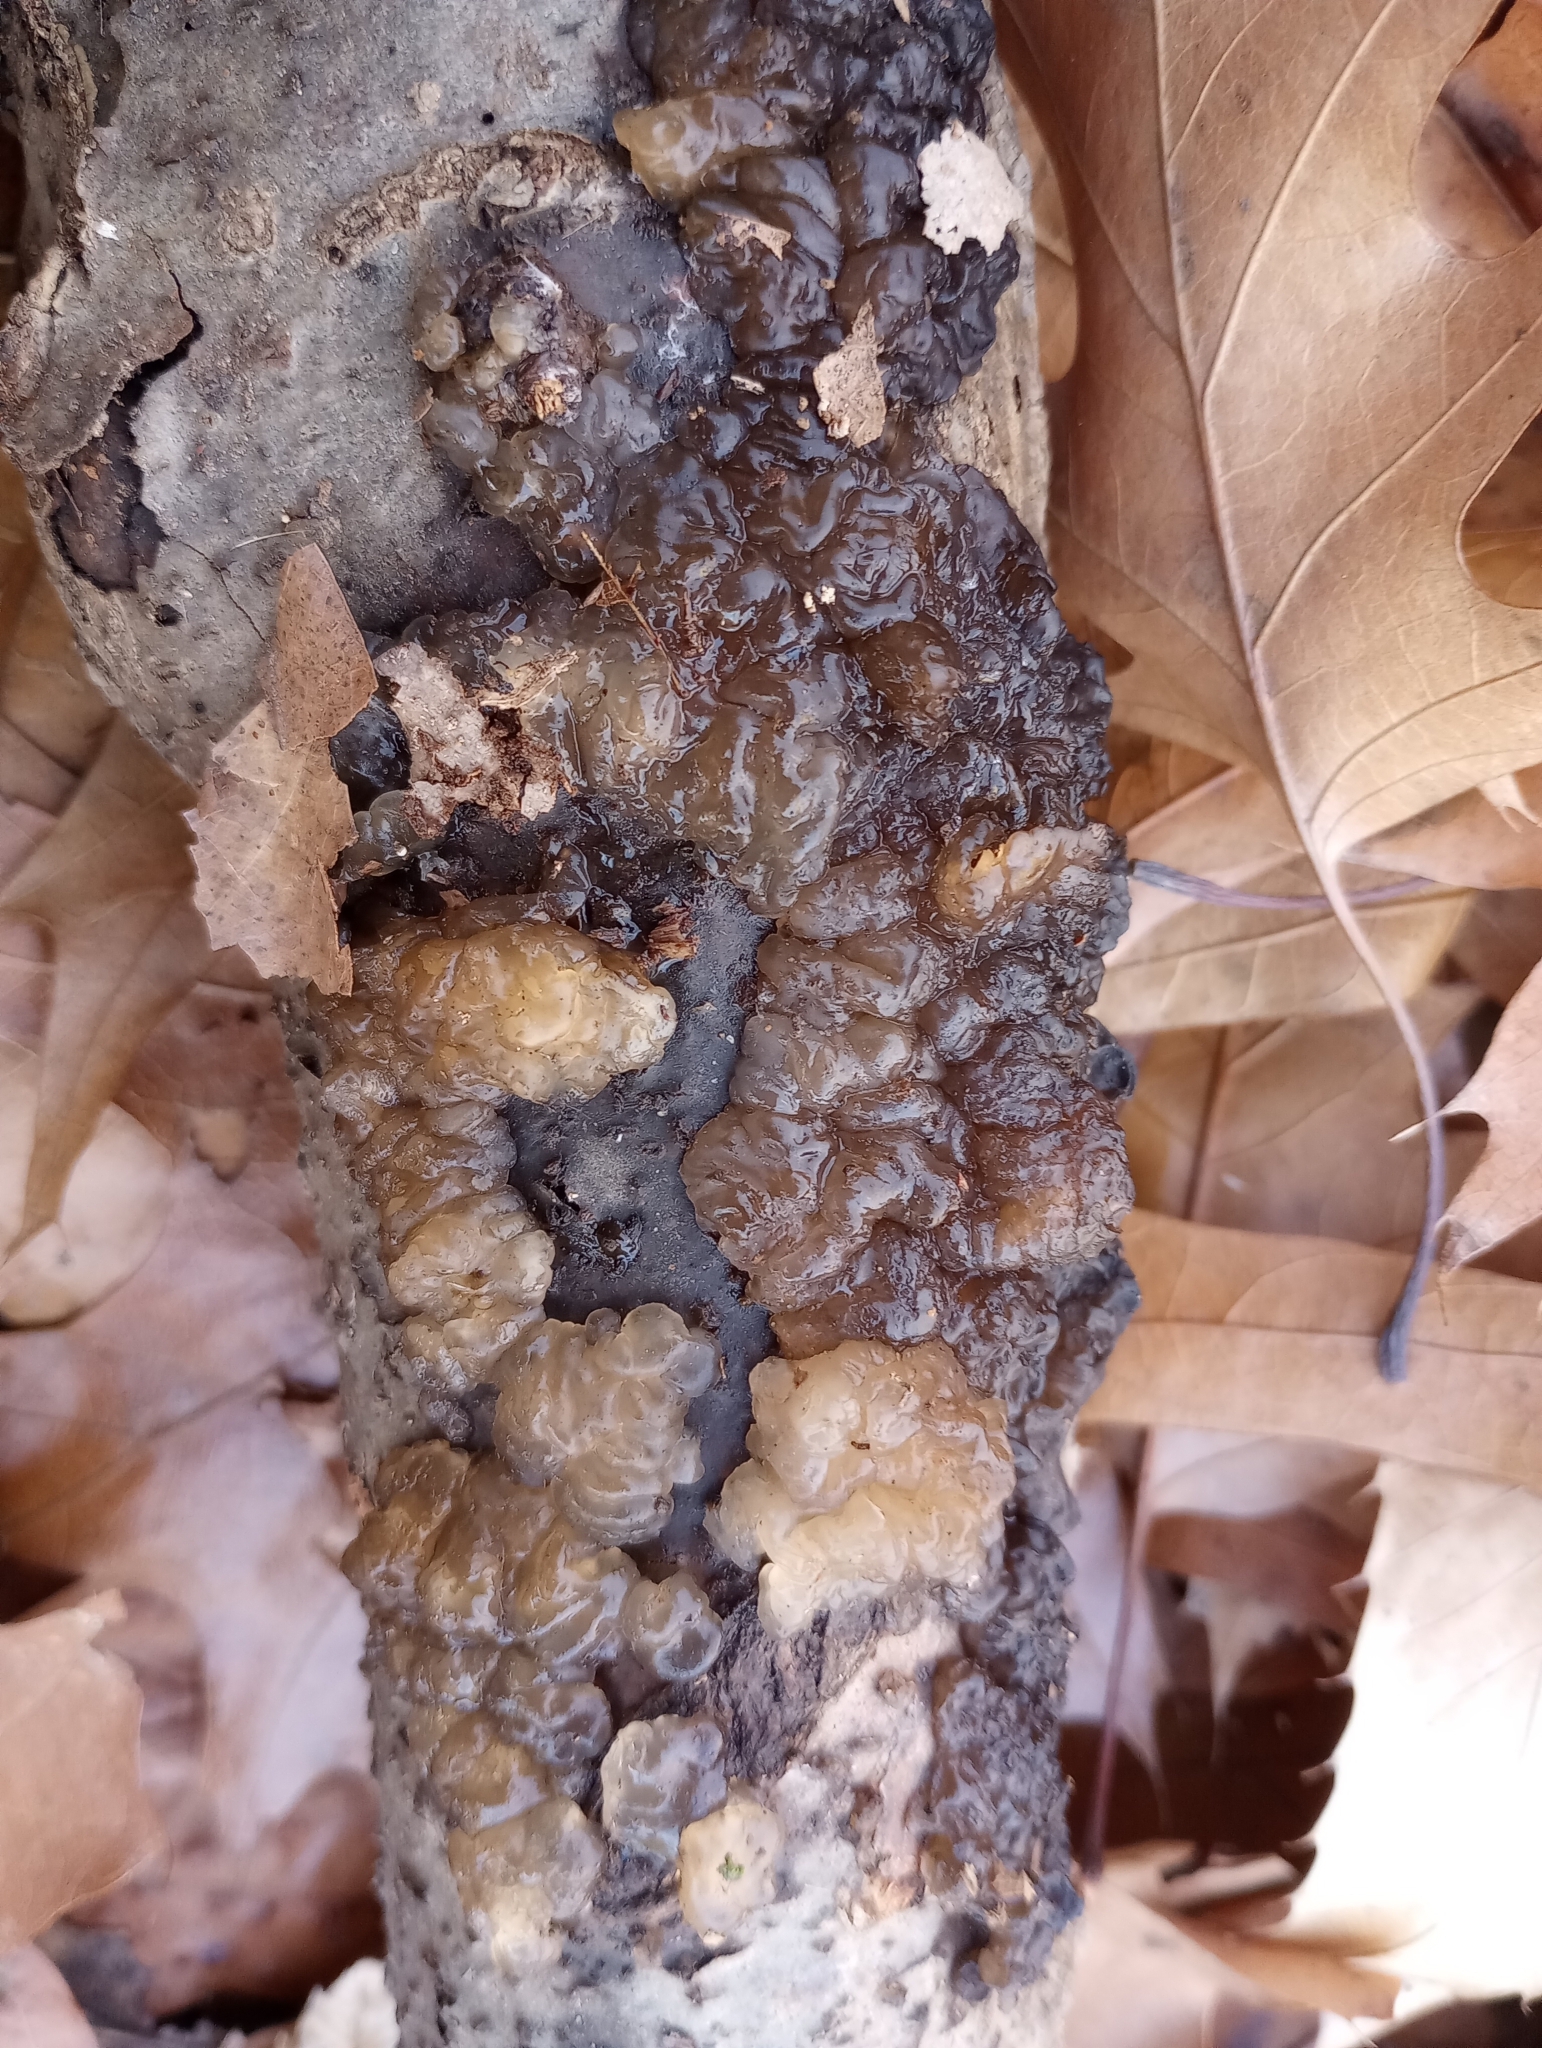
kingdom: Fungi
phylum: Basidiomycota
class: Agaricomycetes
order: Auriculariales
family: Hyaloriaceae
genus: Myxarium
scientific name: Myxarium nucleatum
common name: Crystal brain fungus
